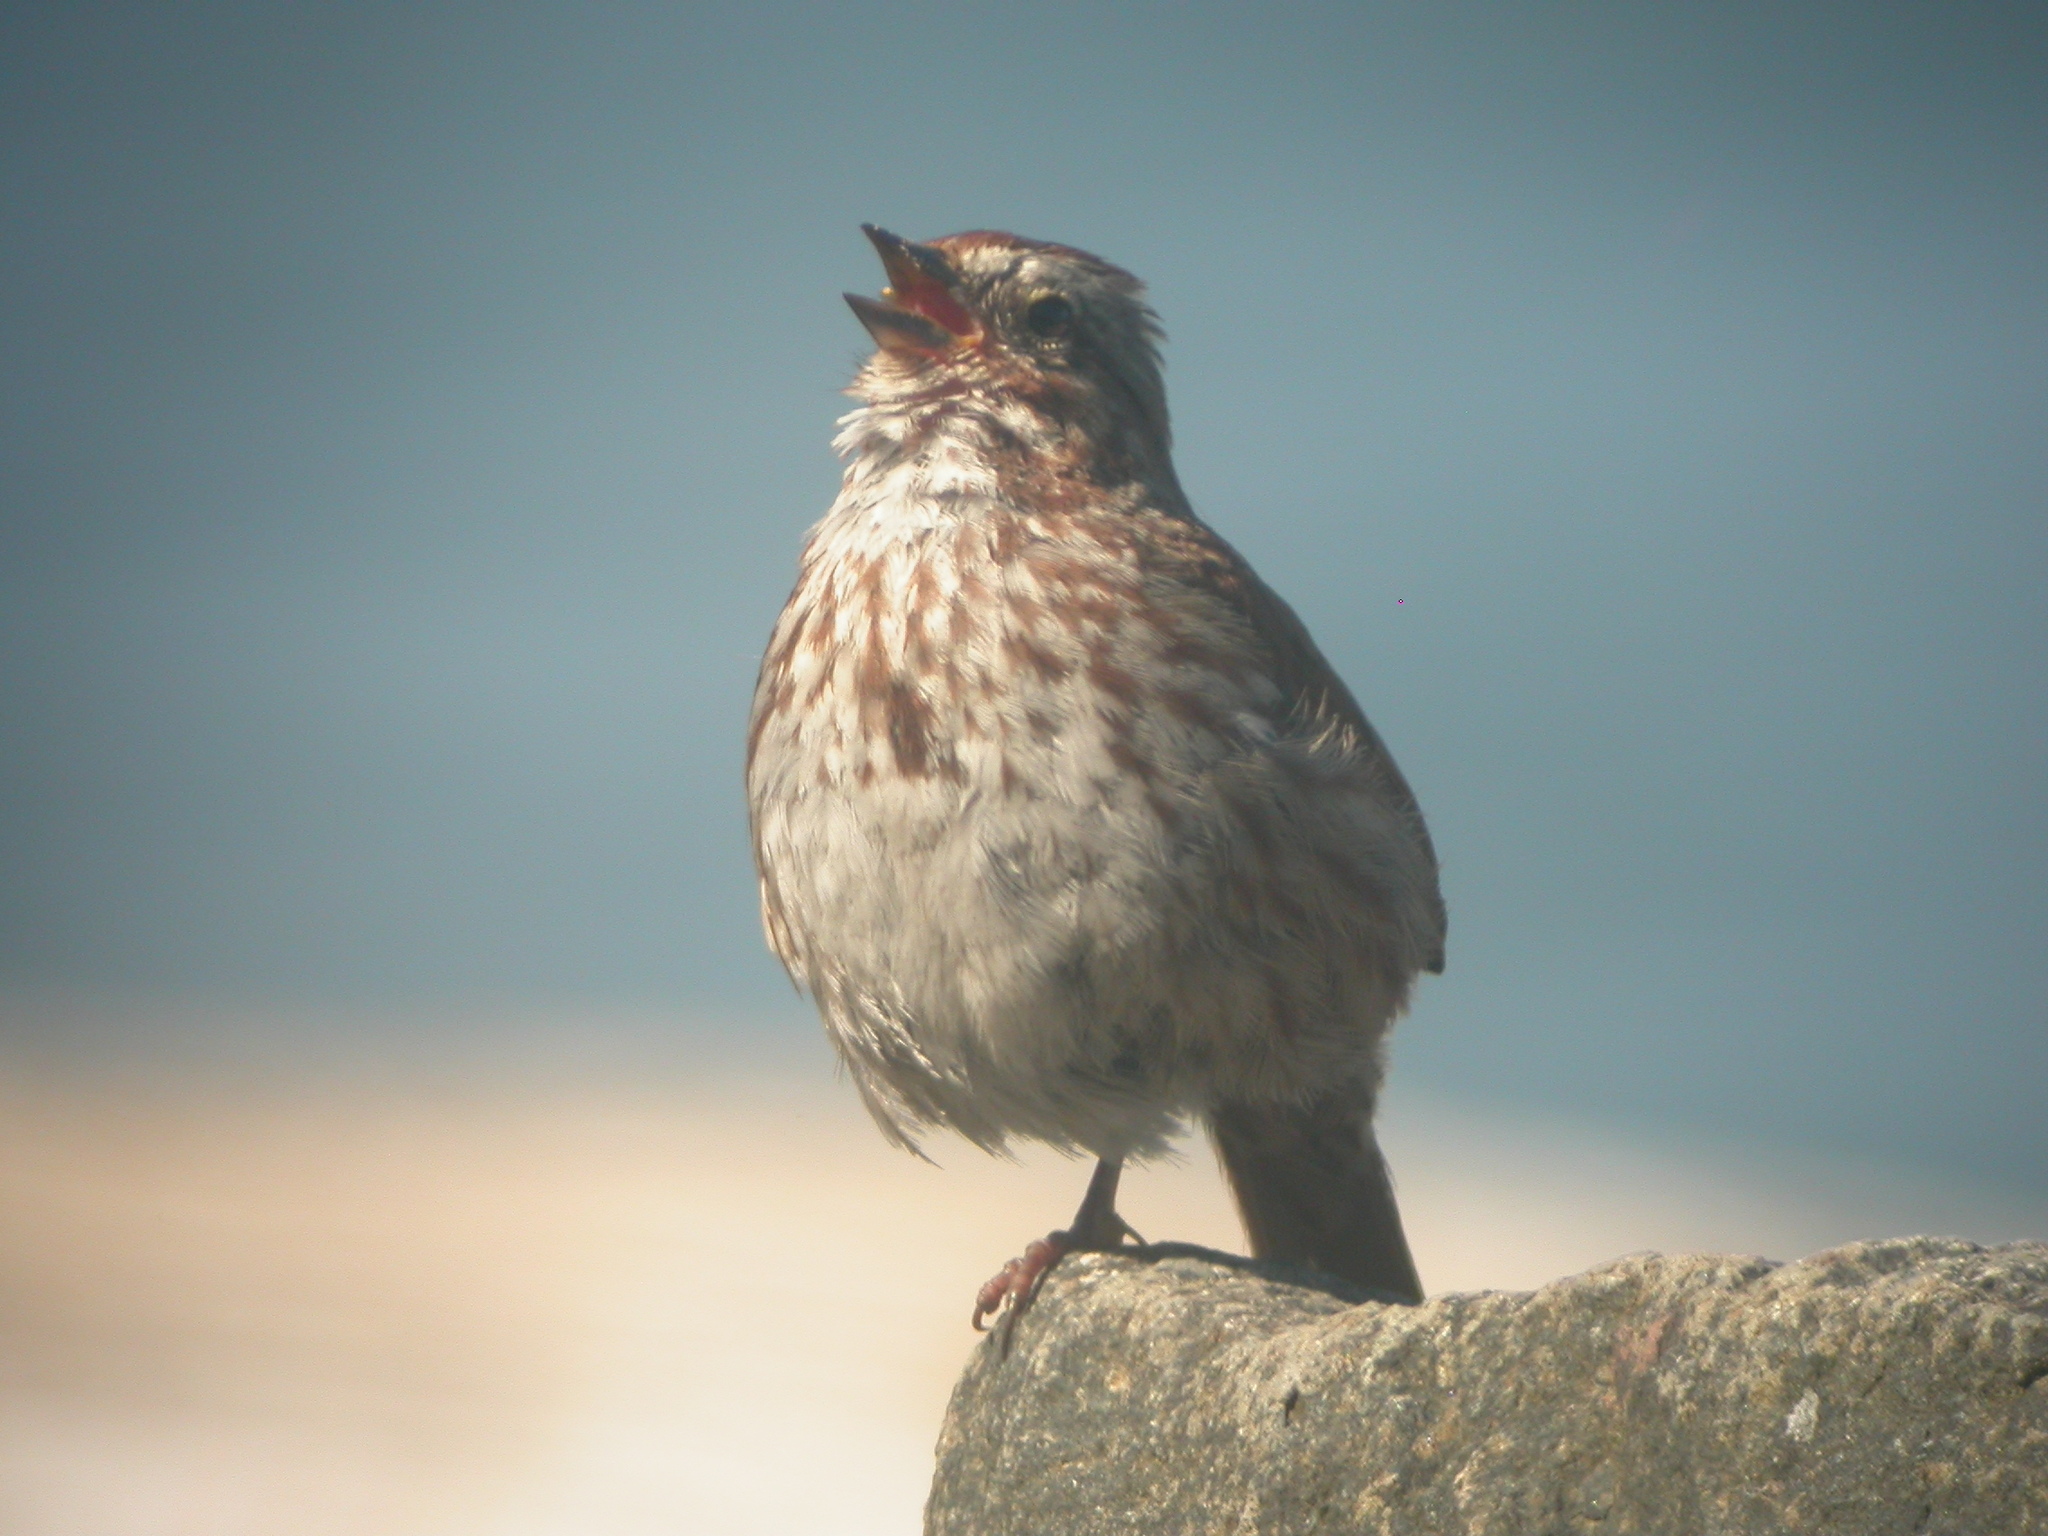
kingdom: Animalia
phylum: Chordata
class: Aves
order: Passeriformes
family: Passerellidae
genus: Melospiza
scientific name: Melospiza melodia
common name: Song sparrow
